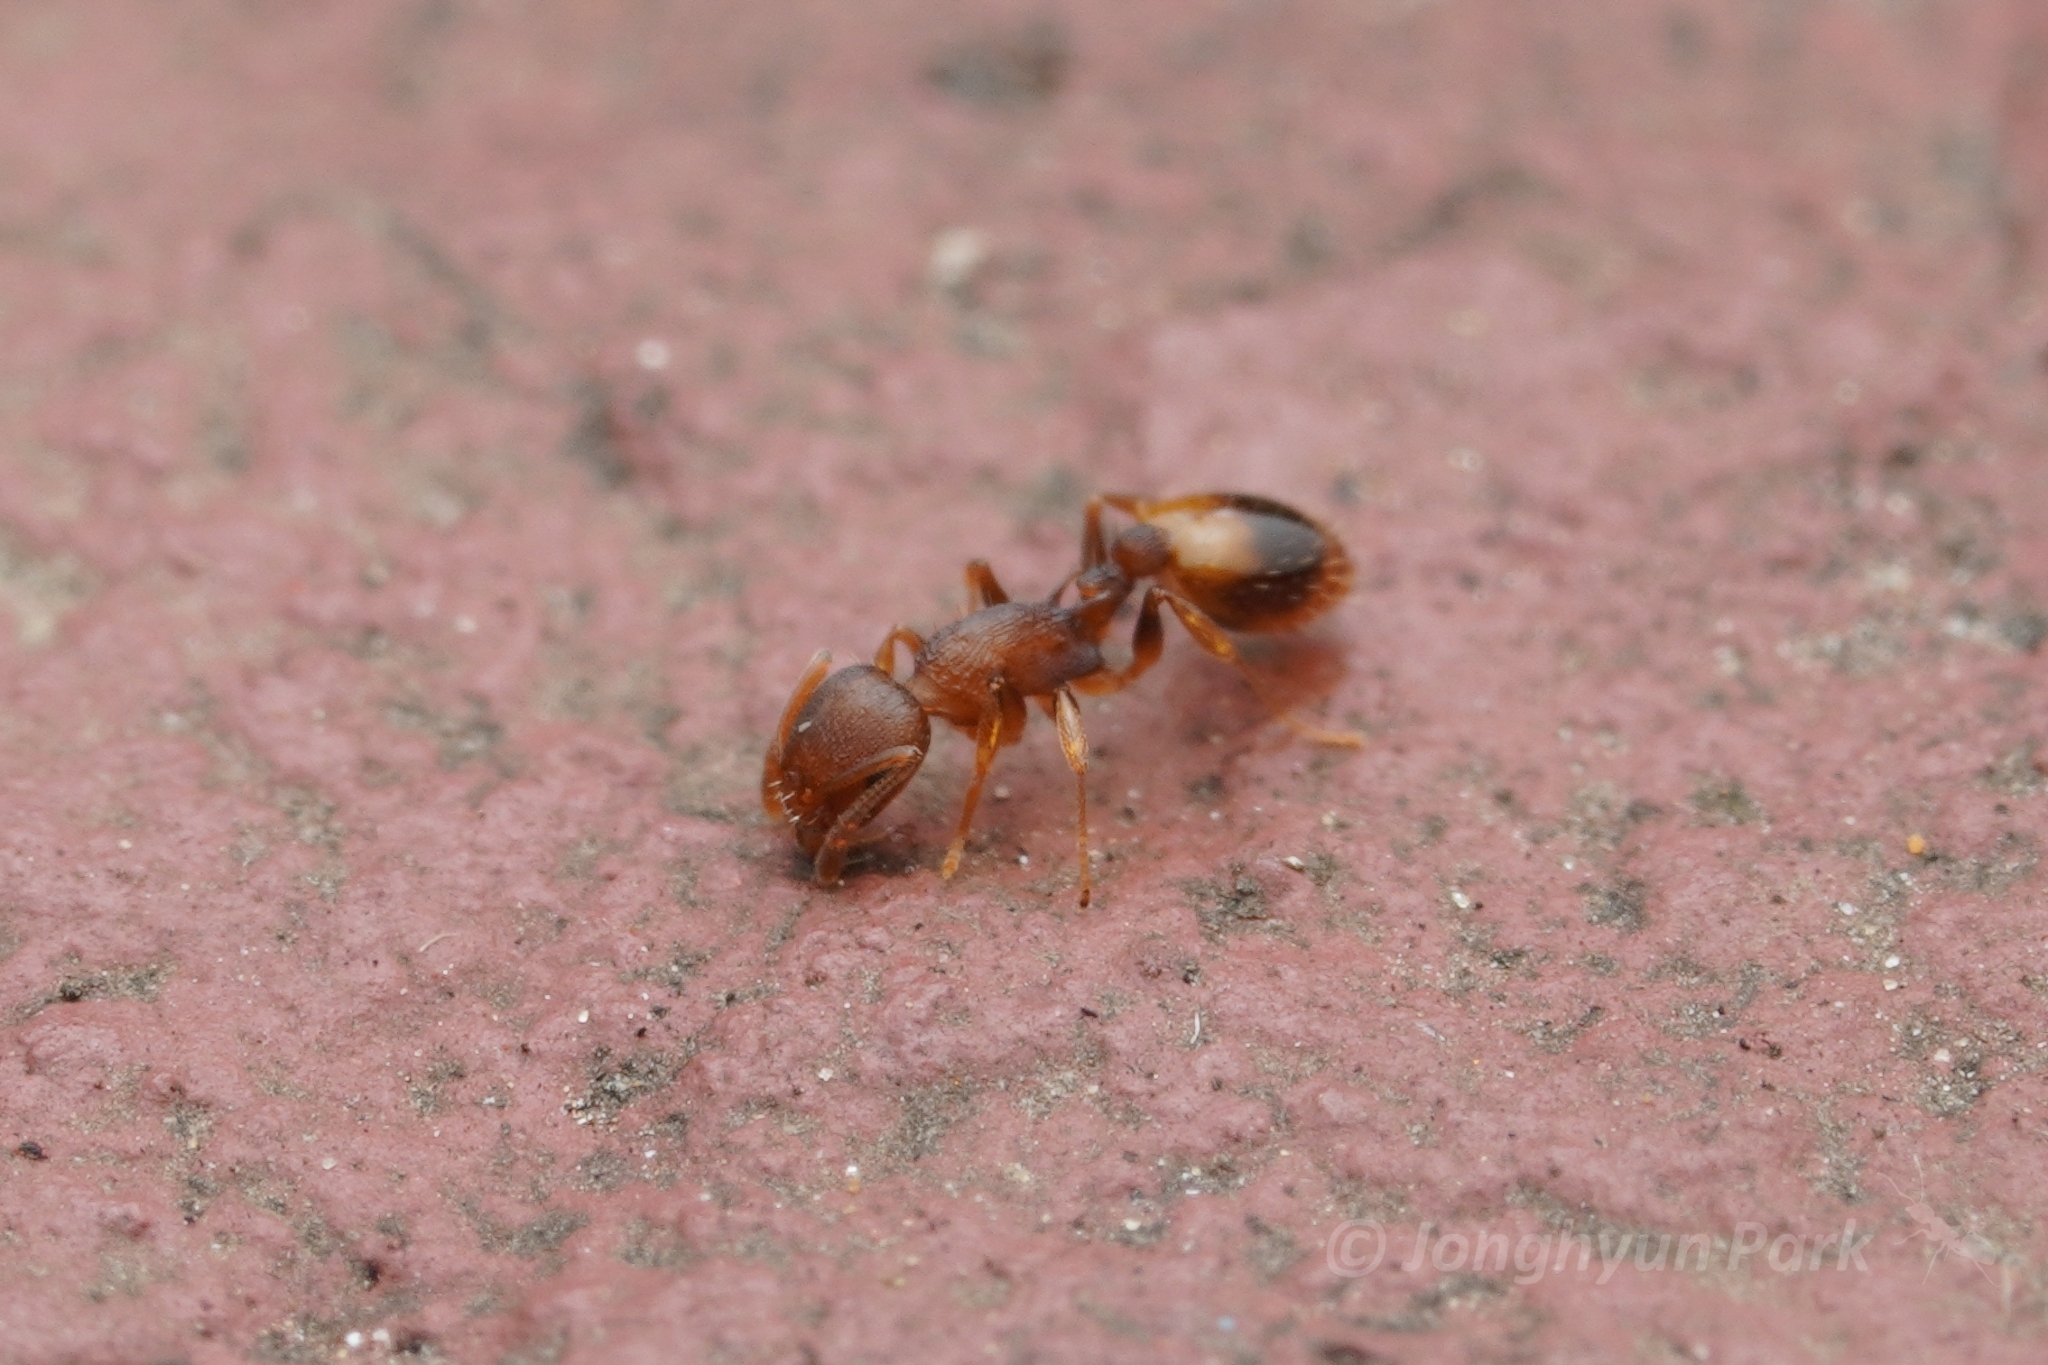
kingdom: Animalia
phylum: Arthropoda
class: Insecta
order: Hymenoptera
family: Formicidae
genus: Temnothorax
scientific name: Temnothorax curvispinosus
